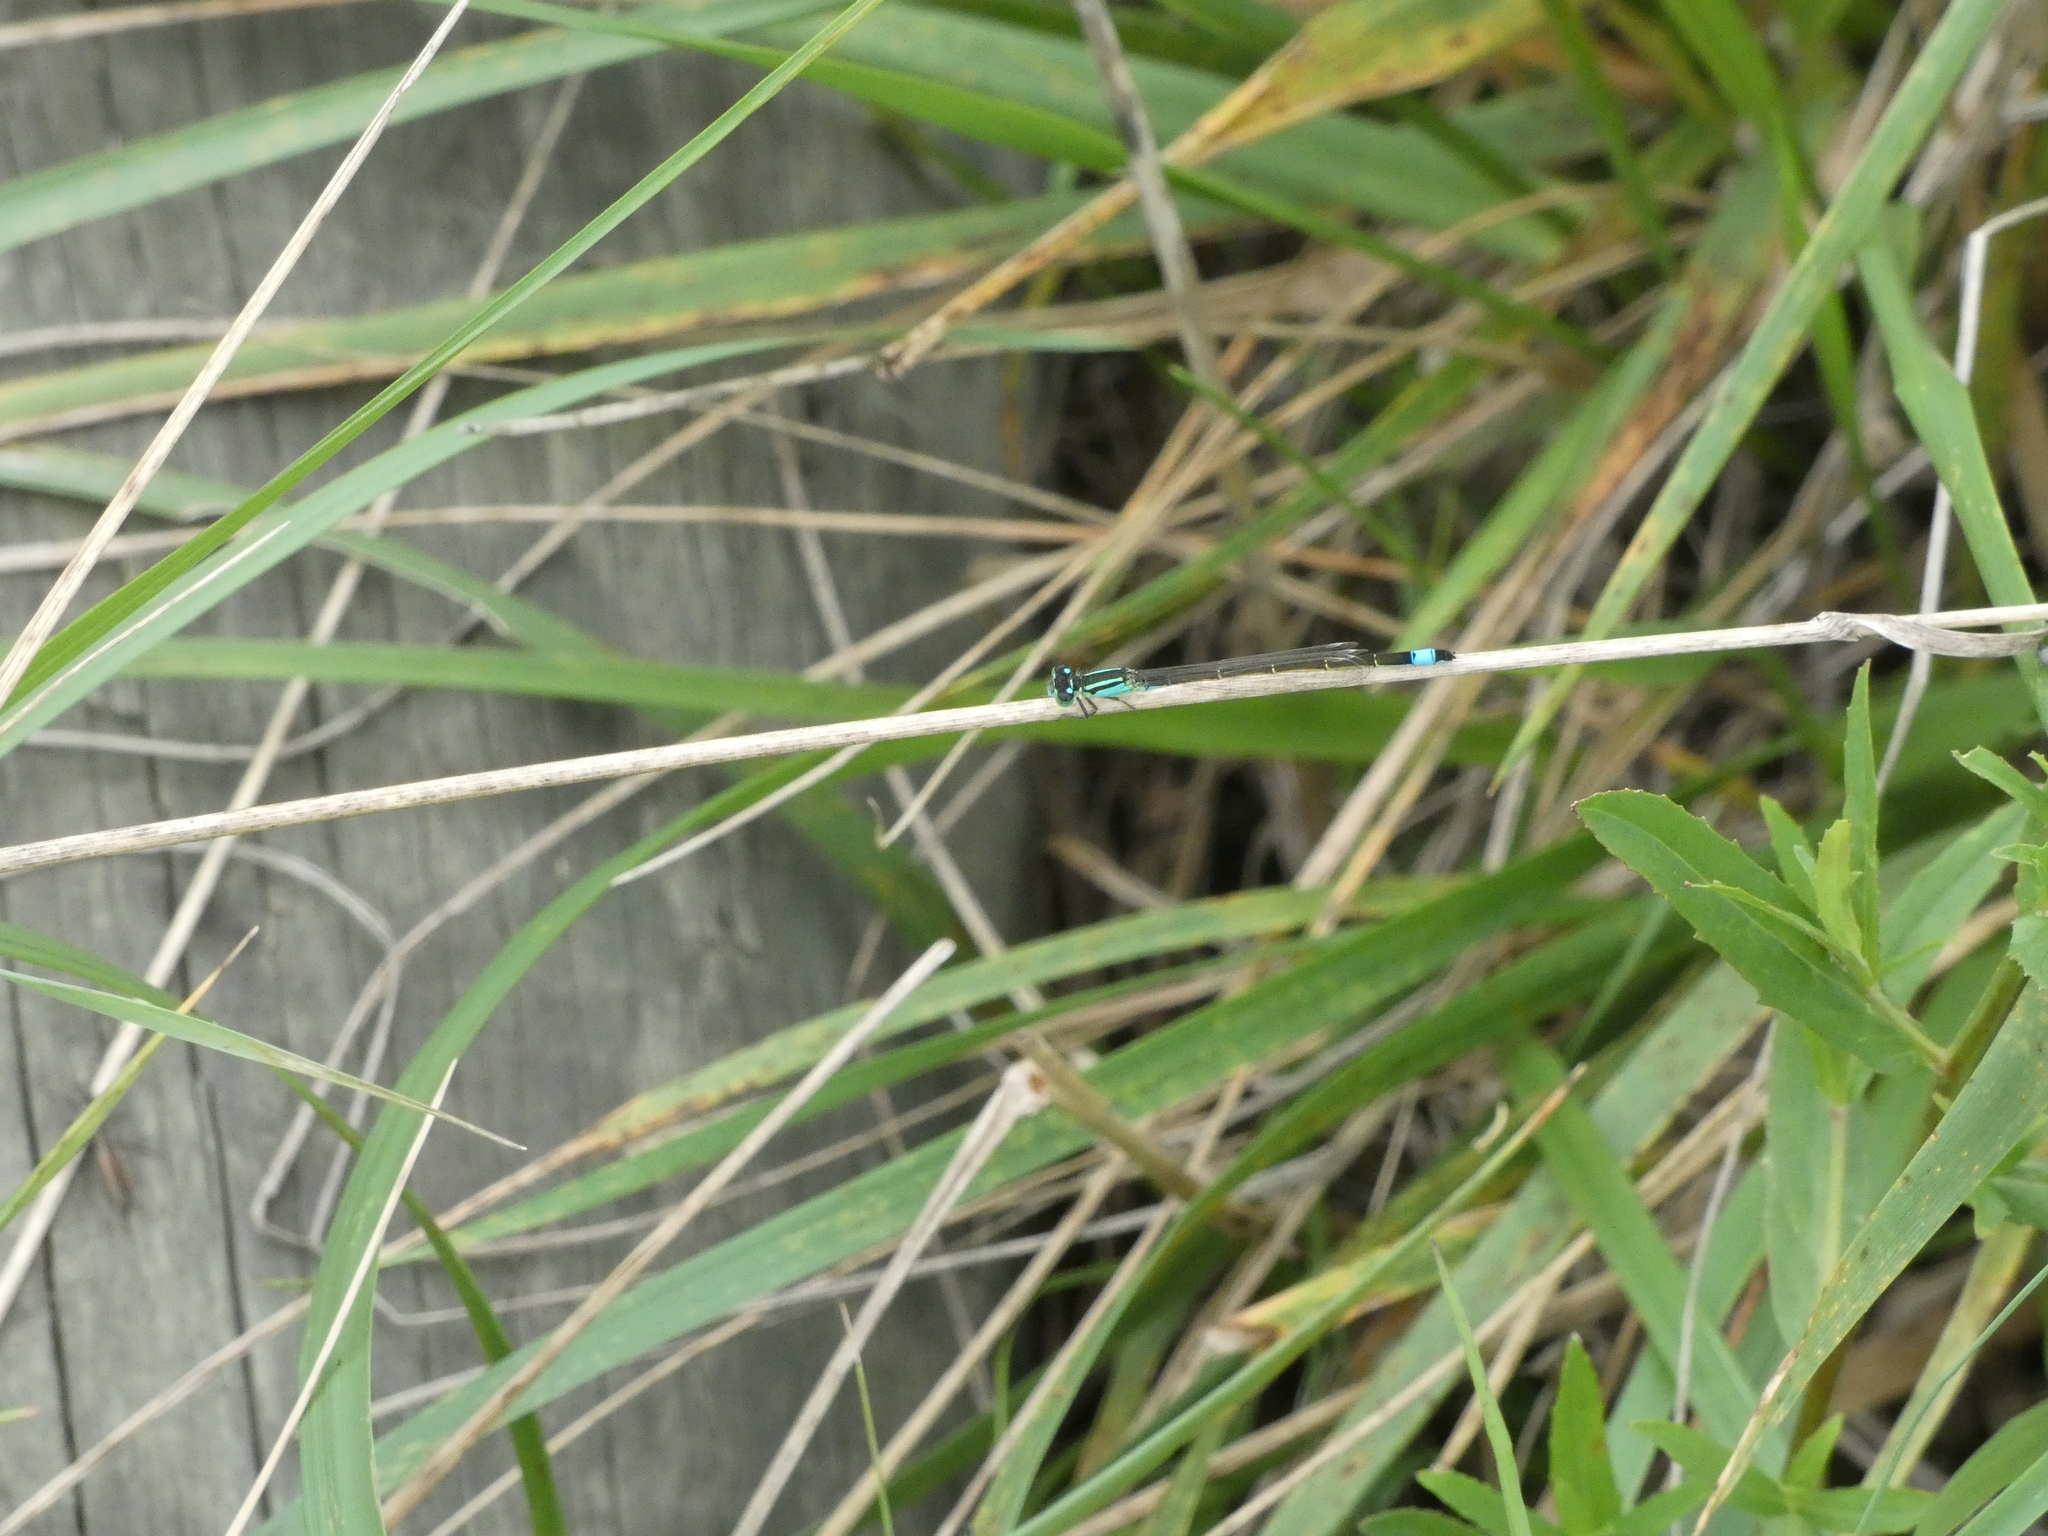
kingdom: Animalia
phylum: Arthropoda
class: Insecta
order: Odonata
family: Coenagrionidae
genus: Ischnura
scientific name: Ischnura elegans
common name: Blue-tailed damselfly
